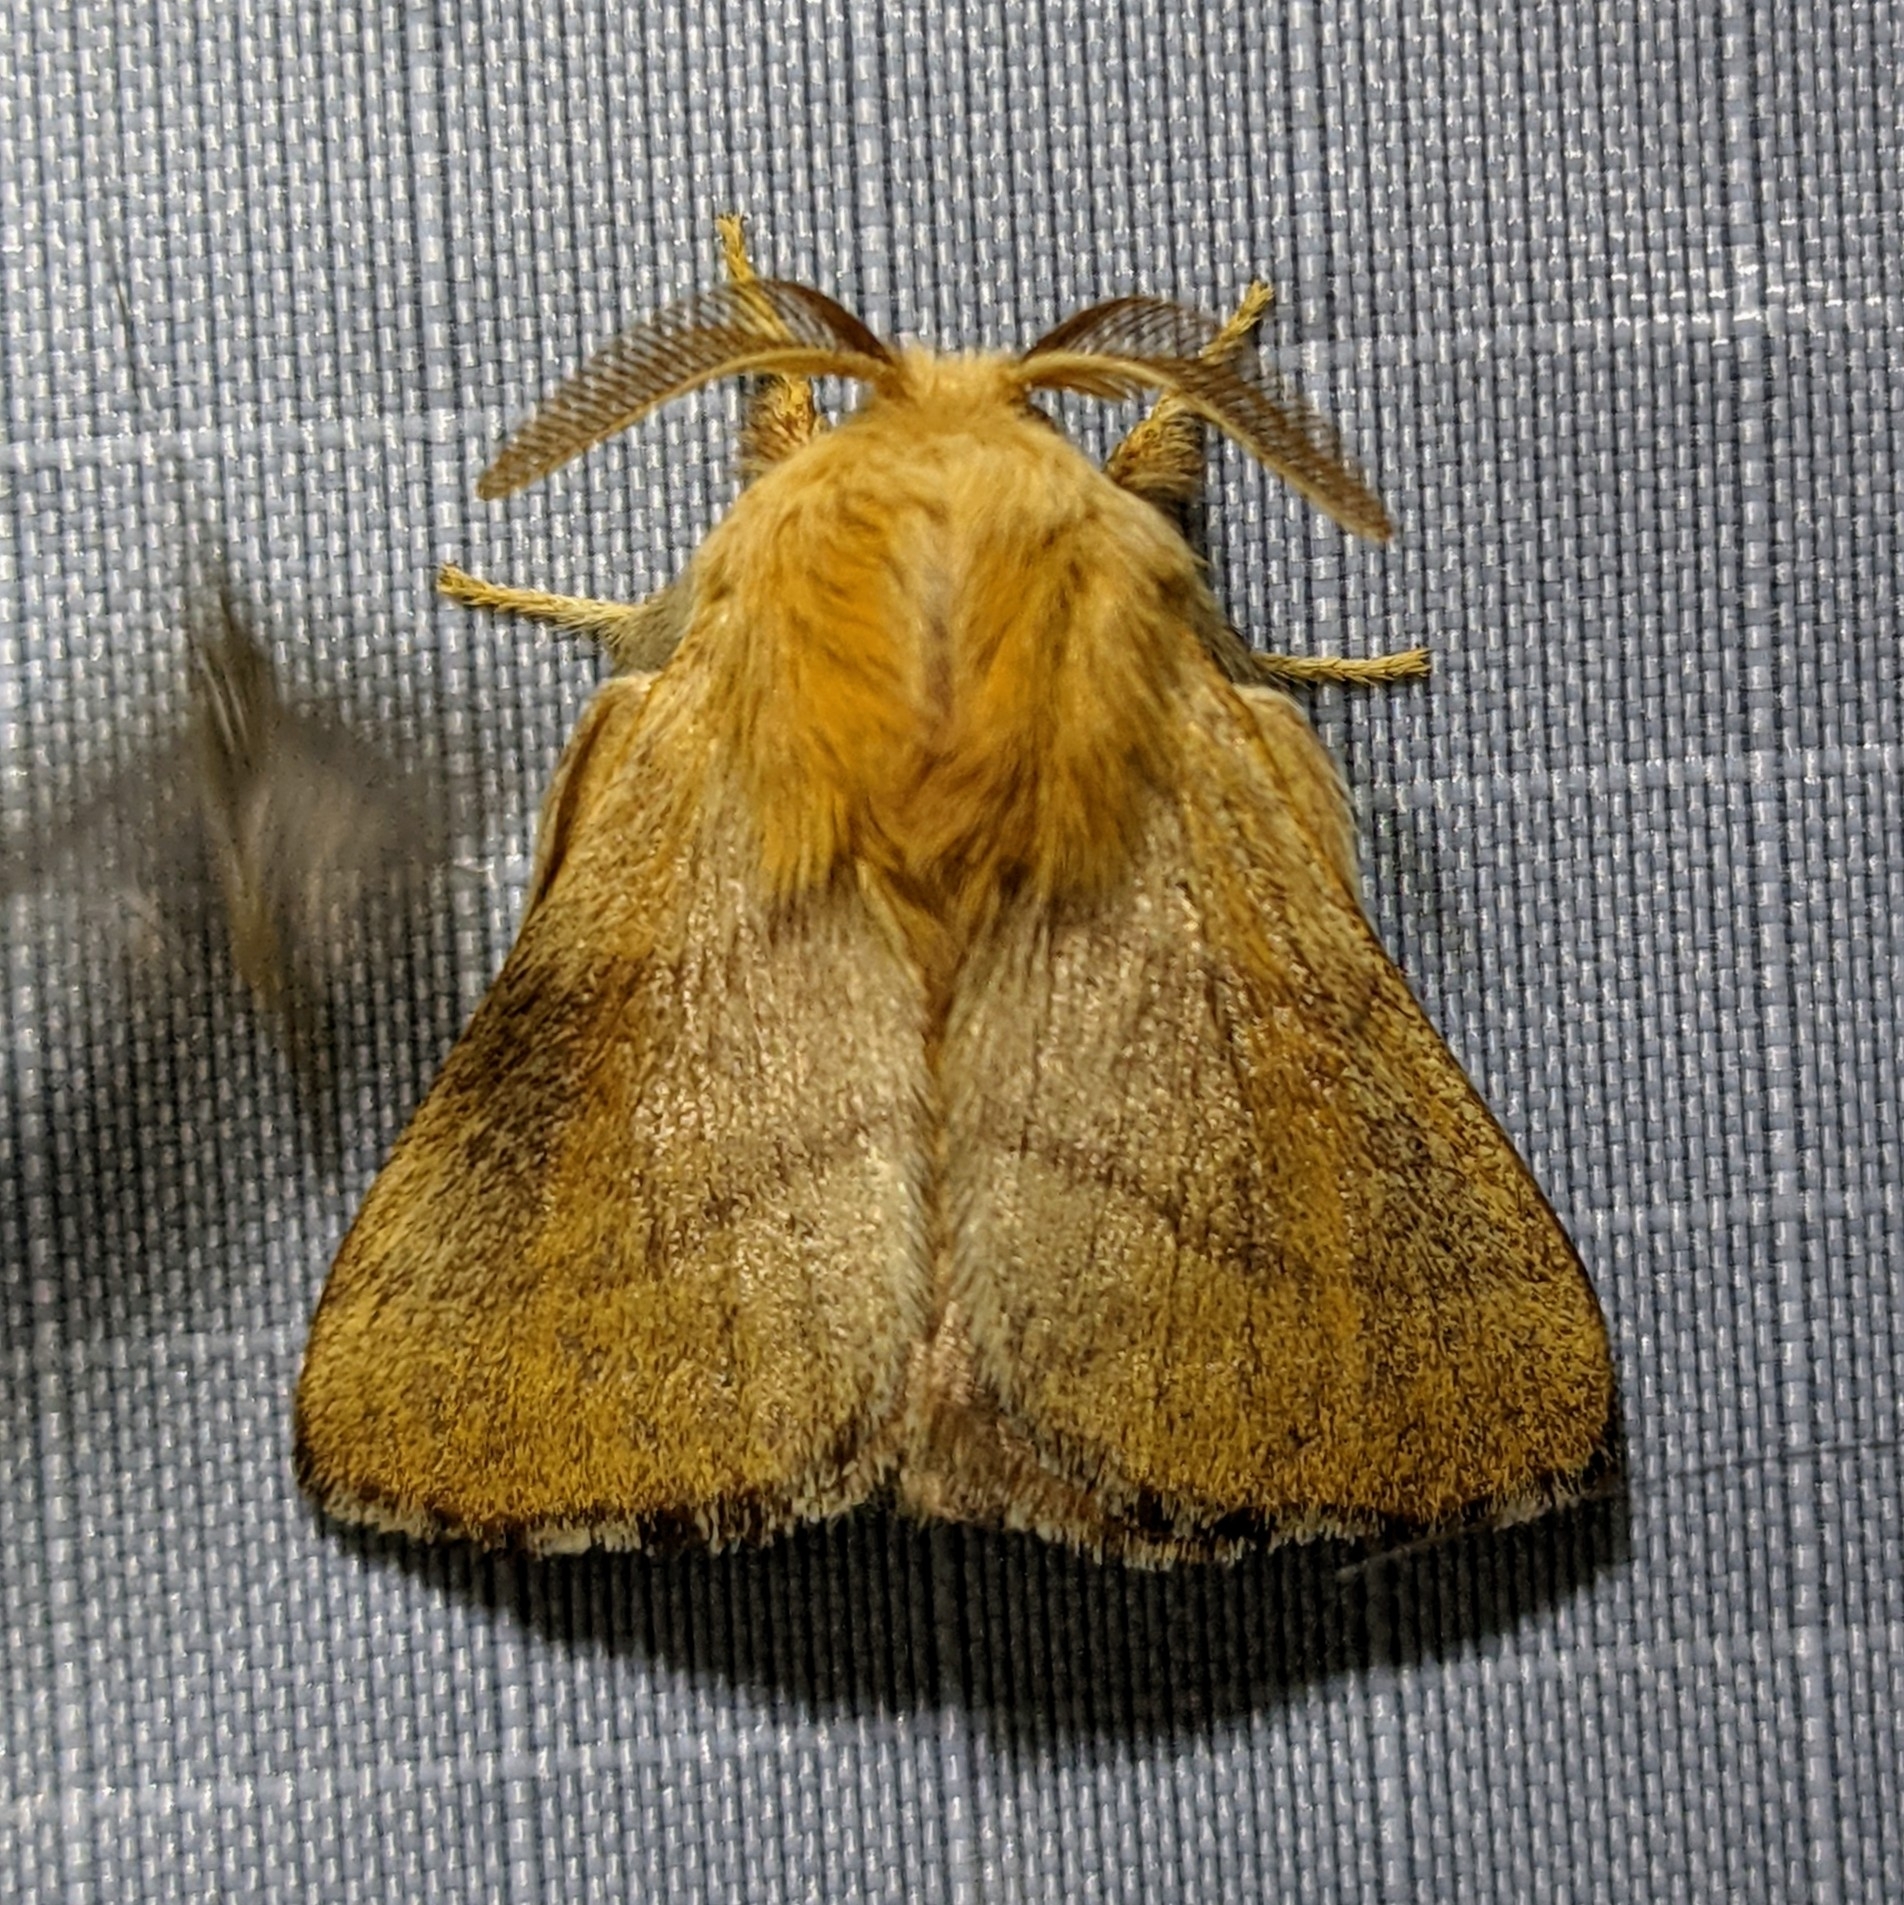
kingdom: Animalia
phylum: Arthropoda
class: Insecta
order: Lepidoptera
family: Lasiocampidae
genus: Malacosoma
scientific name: Malacosoma disstria
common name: Forest tent caterpillar
